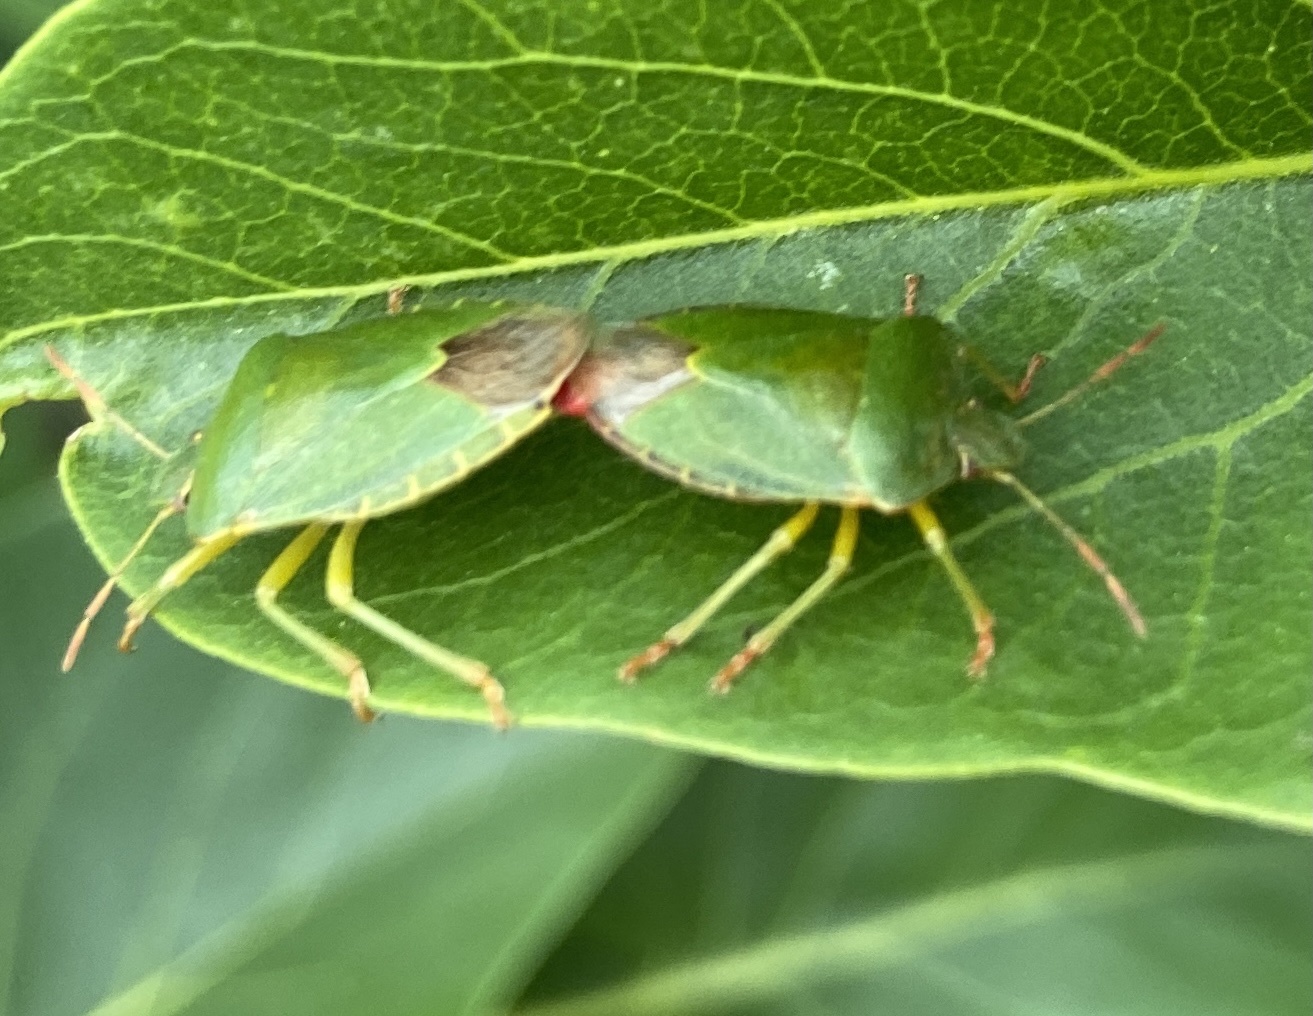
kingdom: Animalia
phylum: Arthropoda
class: Insecta
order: Hemiptera
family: Pentatomidae
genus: Palomena
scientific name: Palomena prasina
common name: Green shieldbug
